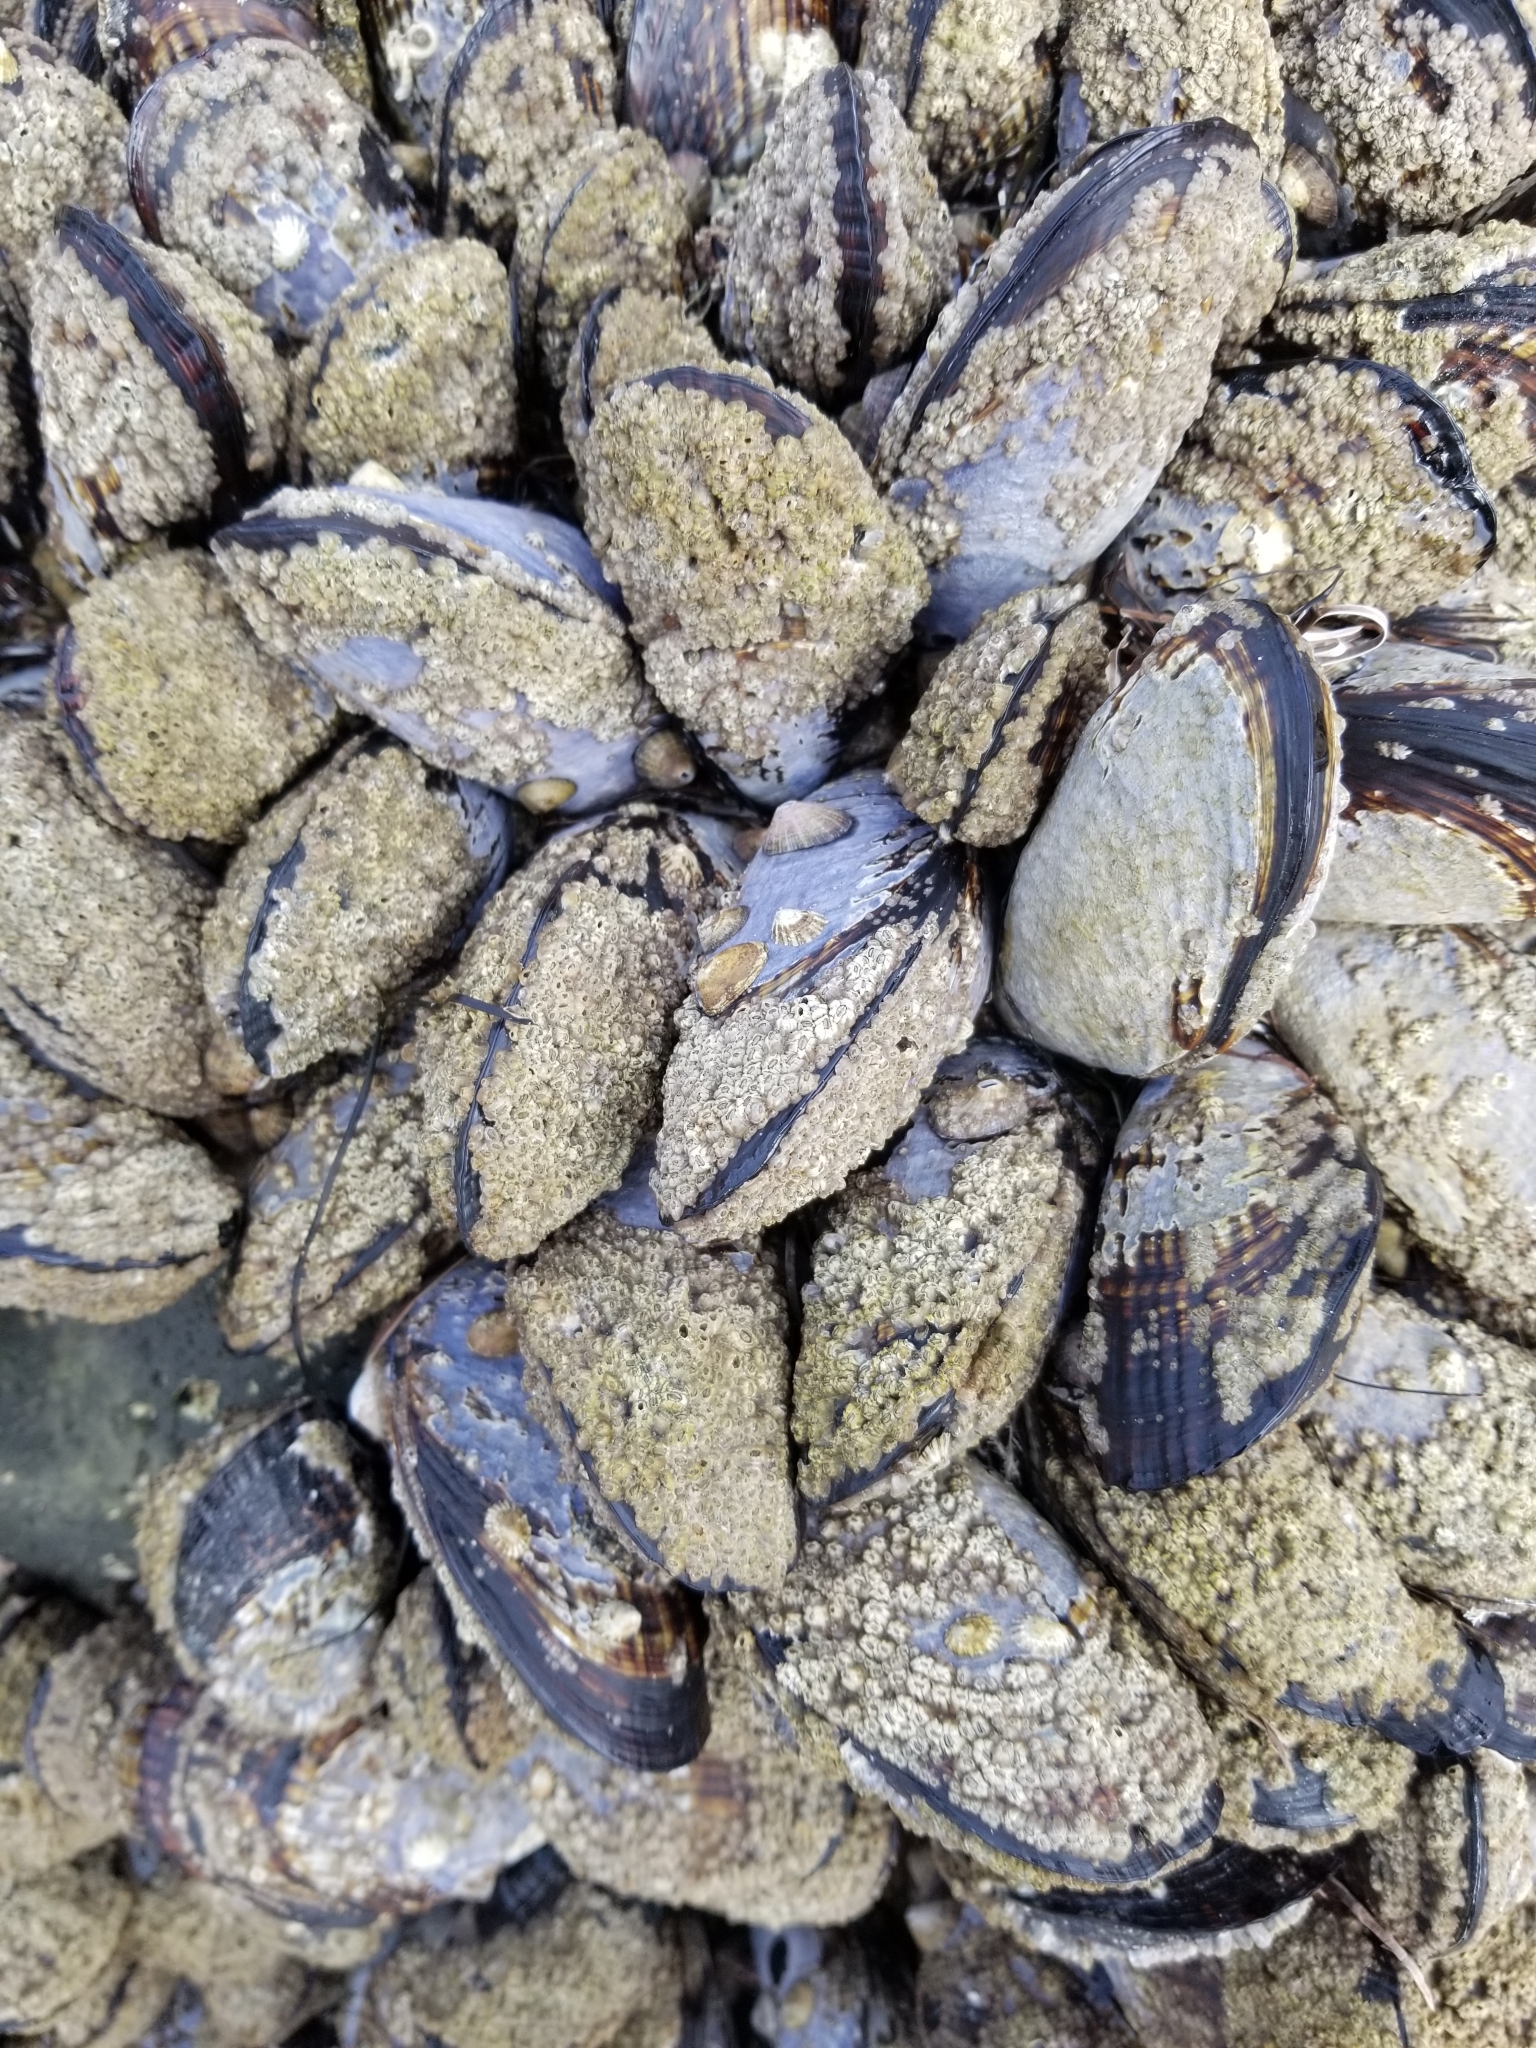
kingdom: Animalia
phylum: Mollusca
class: Bivalvia
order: Mytilida
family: Mytilidae
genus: Mytilus
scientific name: Mytilus californianus
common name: California mussel
